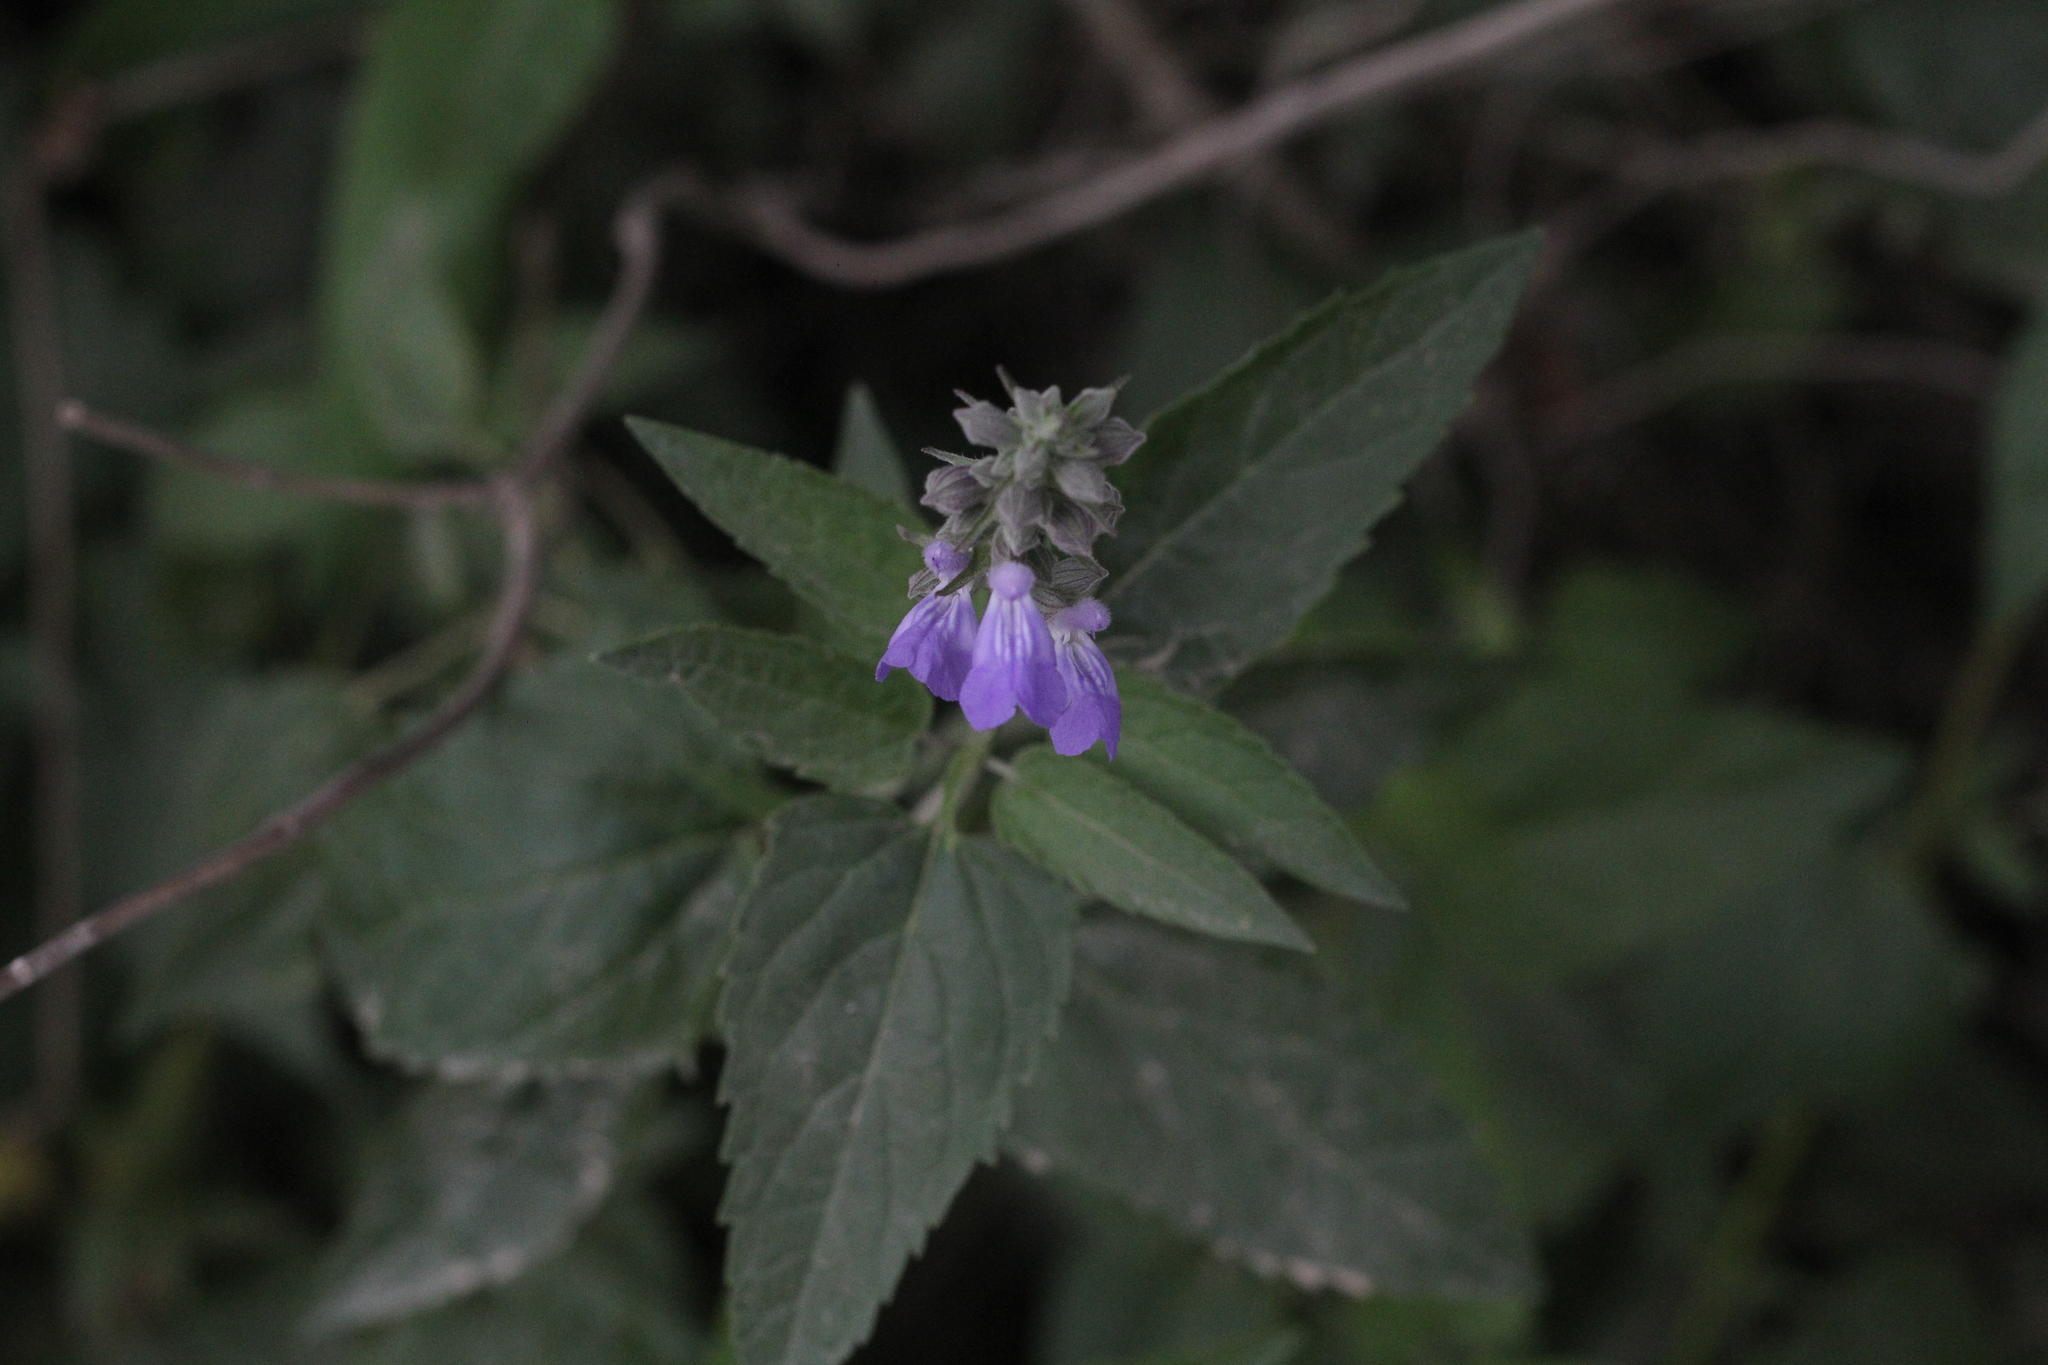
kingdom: Plantae
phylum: Tracheophyta
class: Magnoliopsida
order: Lamiales
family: Lamiaceae
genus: Salvia
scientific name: Salvia pallida
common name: Pale sage
